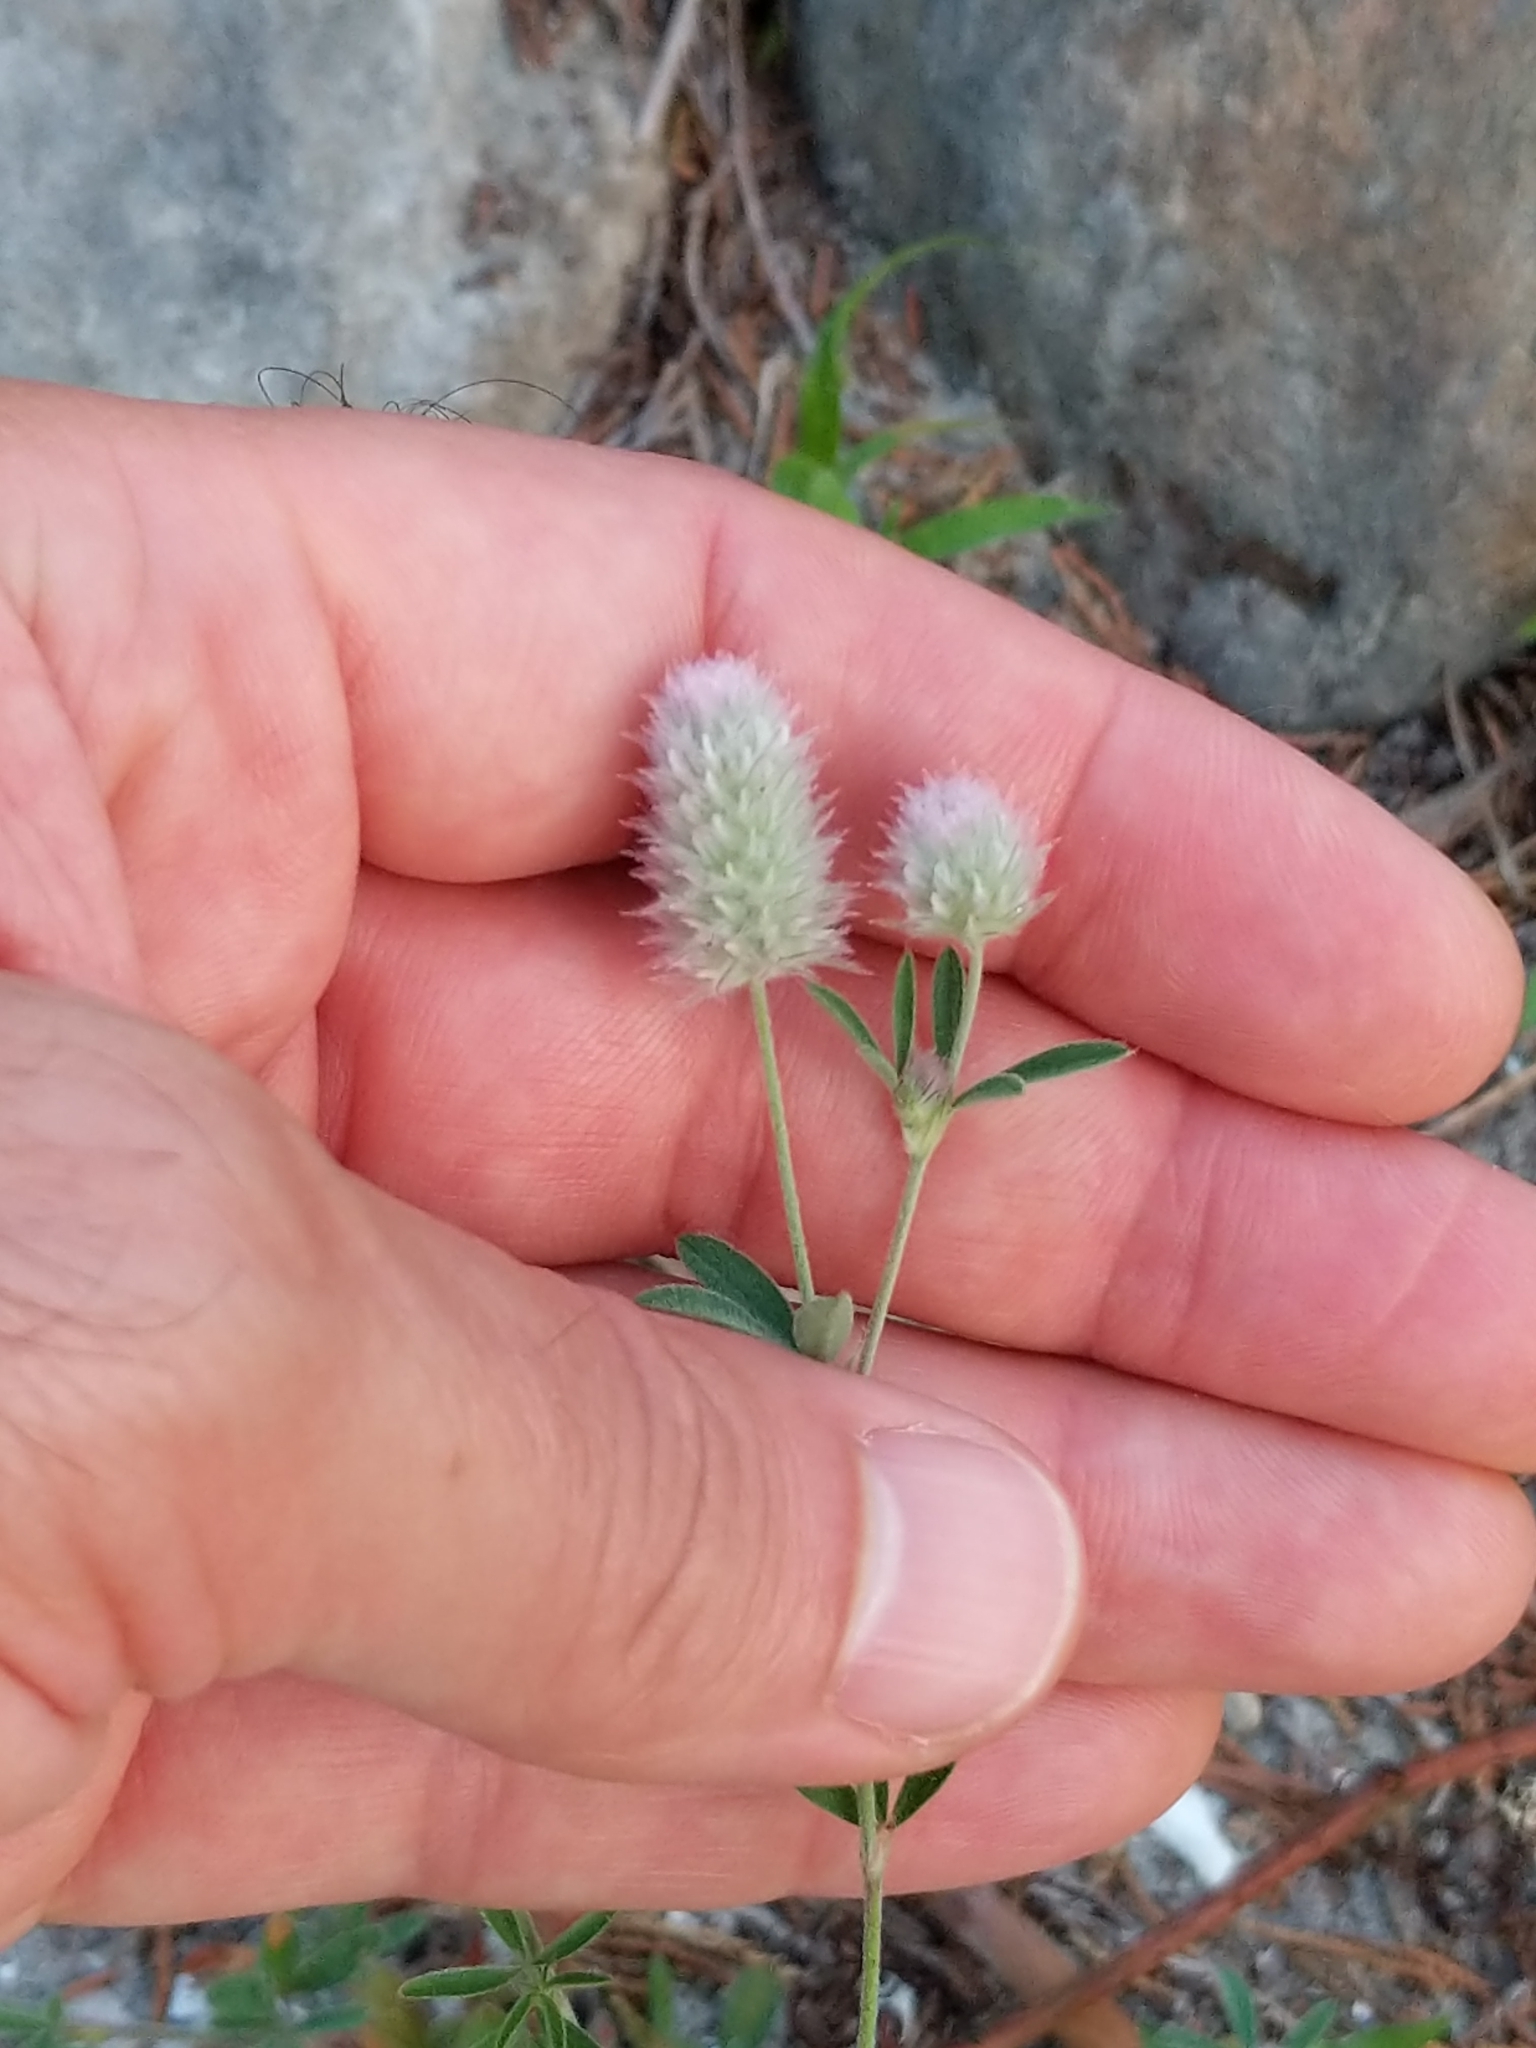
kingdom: Plantae
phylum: Tracheophyta
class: Magnoliopsida
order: Fabales
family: Fabaceae
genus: Trifolium
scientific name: Trifolium arvense
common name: Hare's-foot clover
